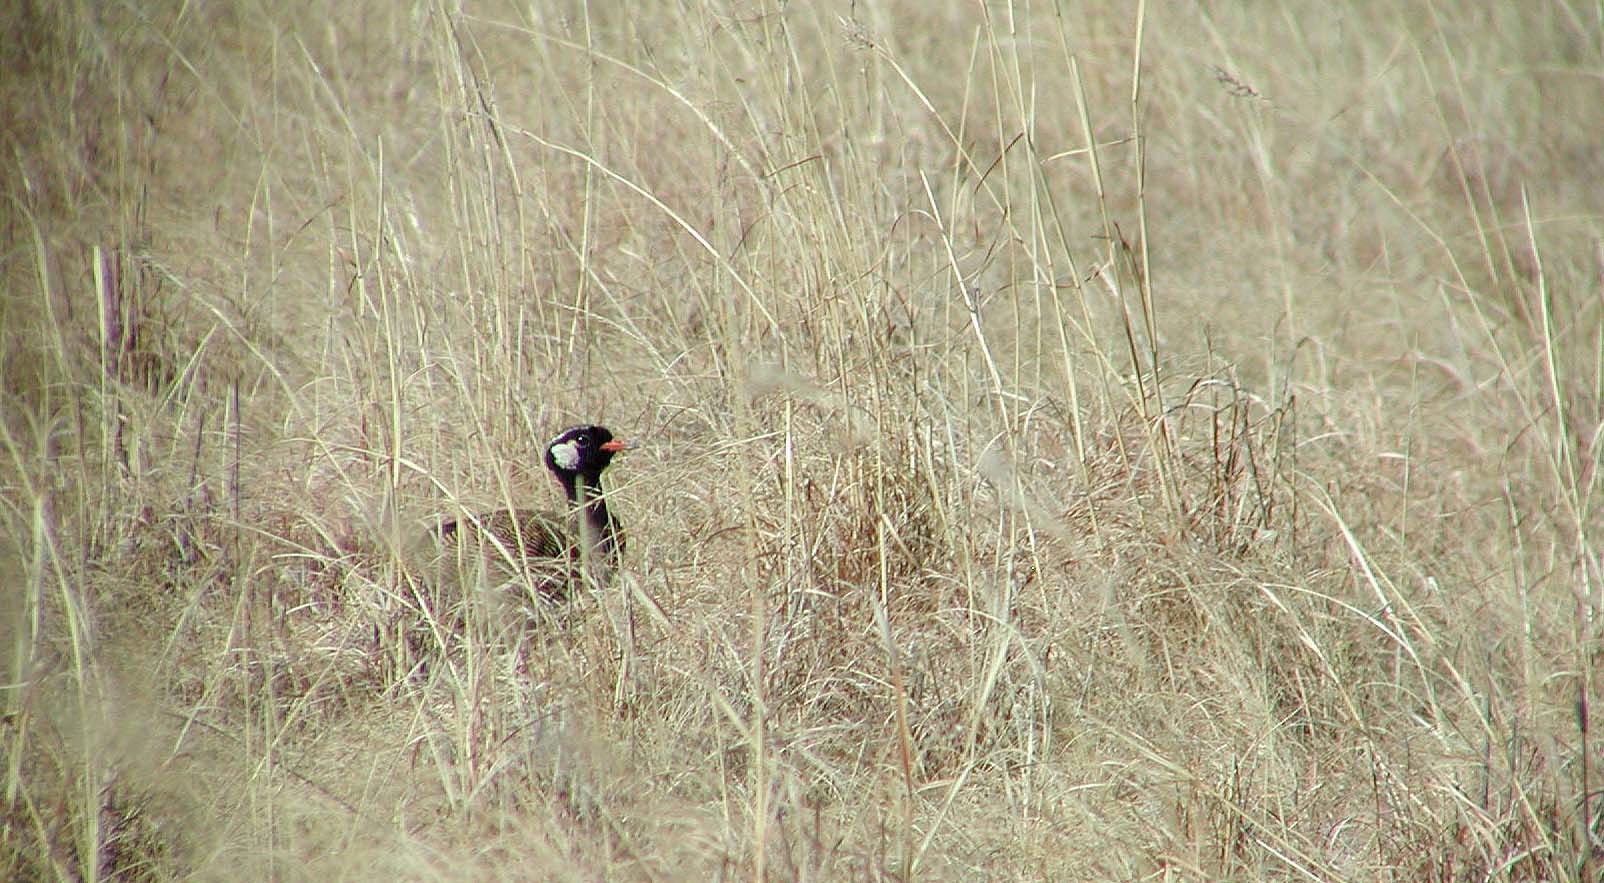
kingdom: Animalia
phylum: Chordata
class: Aves
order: Otidiformes
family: Otididae
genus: Afrotis
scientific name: Afrotis afraoides
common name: Northern black korhaan
